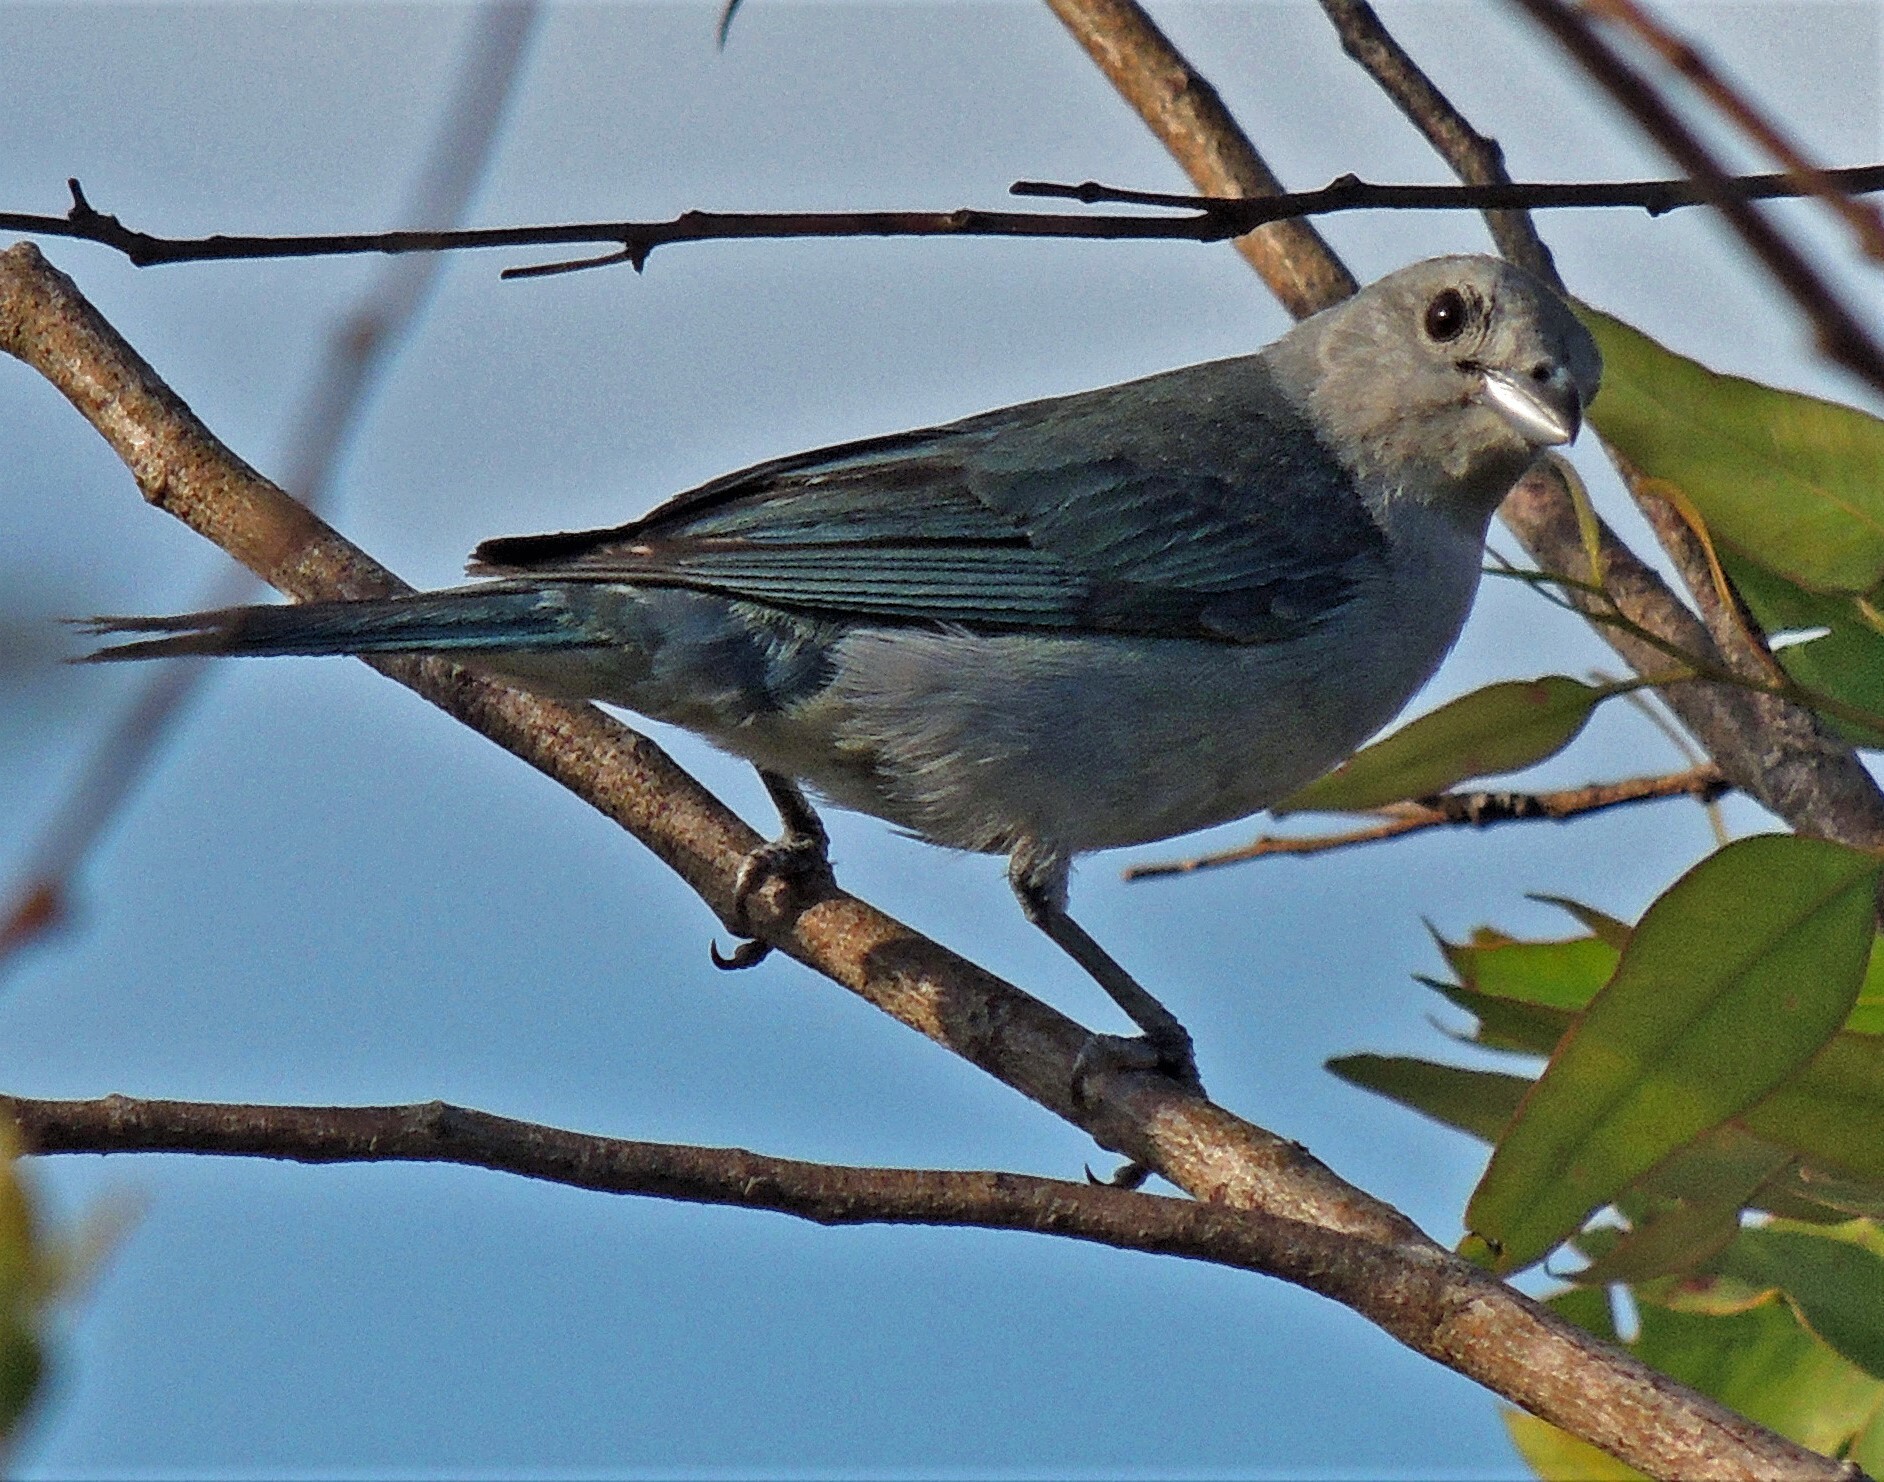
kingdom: Animalia
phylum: Chordata
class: Aves
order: Passeriformes
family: Thraupidae
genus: Thraupis
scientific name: Thraupis sayaca
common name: Sayaca tanager
